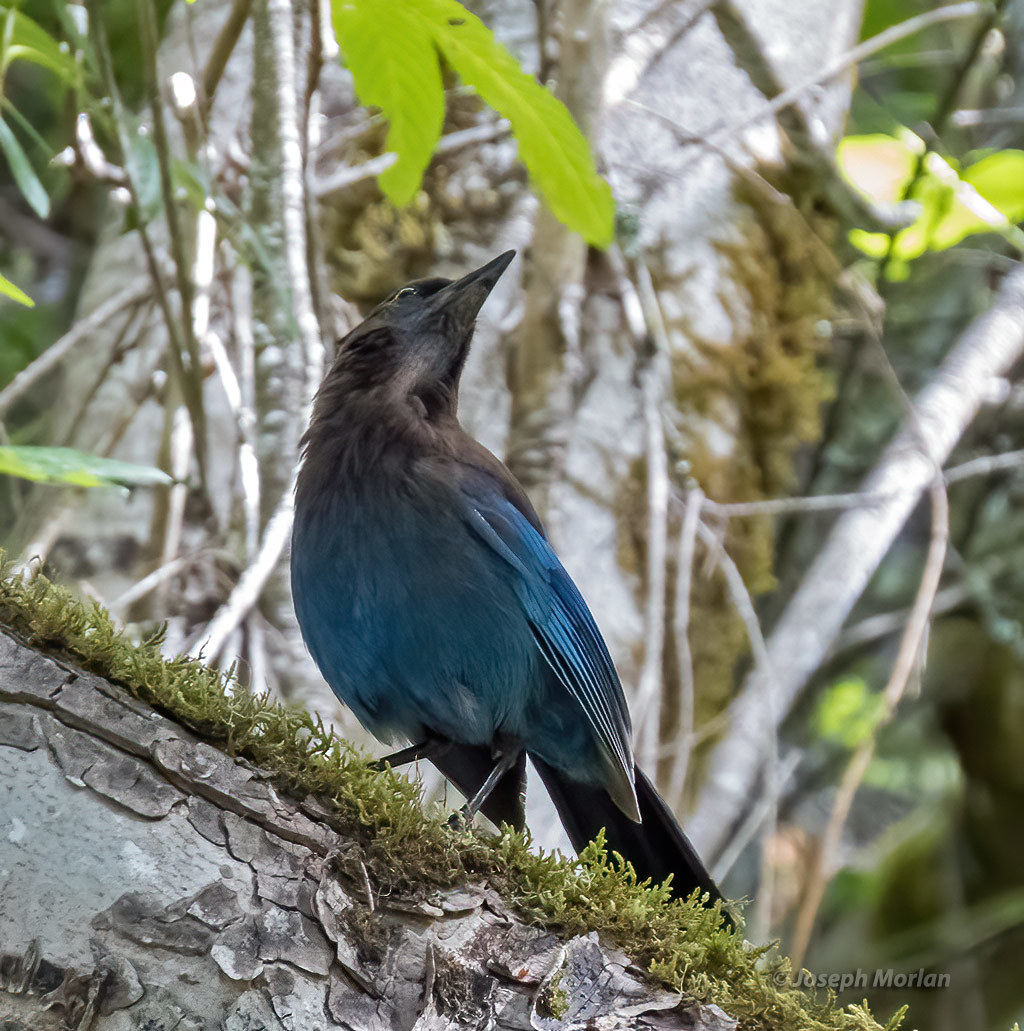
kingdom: Animalia
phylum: Chordata
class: Aves
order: Passeriformes
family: Corvidae
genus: Cyanocitta
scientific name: Cyanocitta stelleri
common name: Steller's jay
